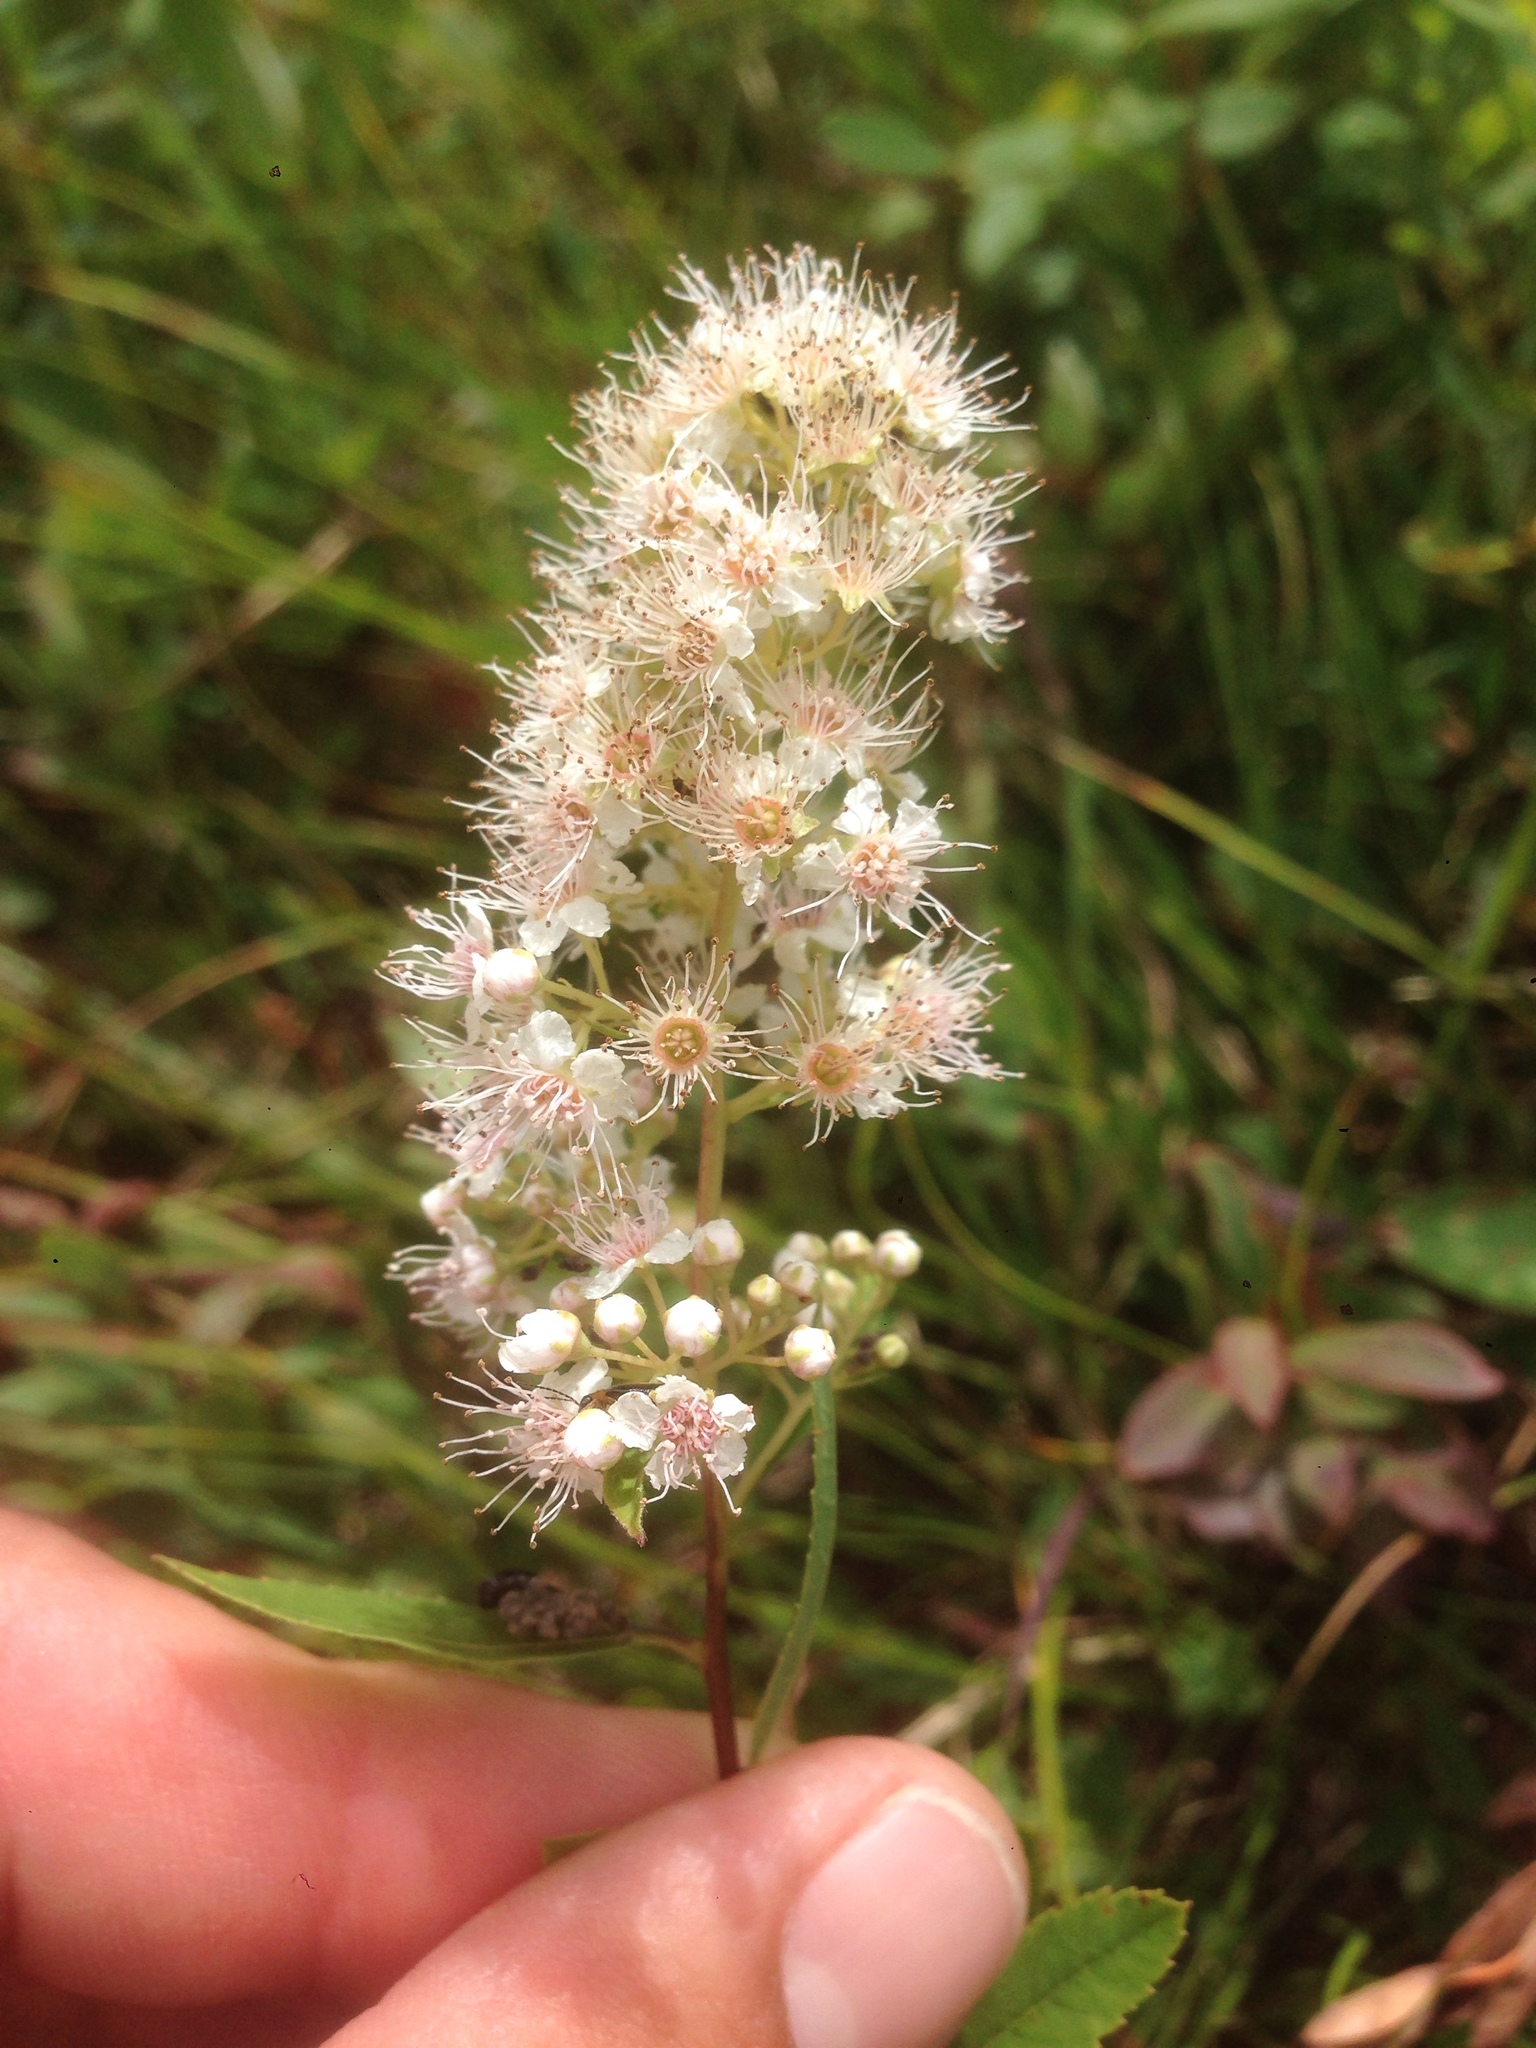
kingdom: Plantae
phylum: Tracheophyta
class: Magnoliopsida
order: Rosales
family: Rosaceae
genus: Spiraea
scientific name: Spiraea alba
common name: Pale bridewort
